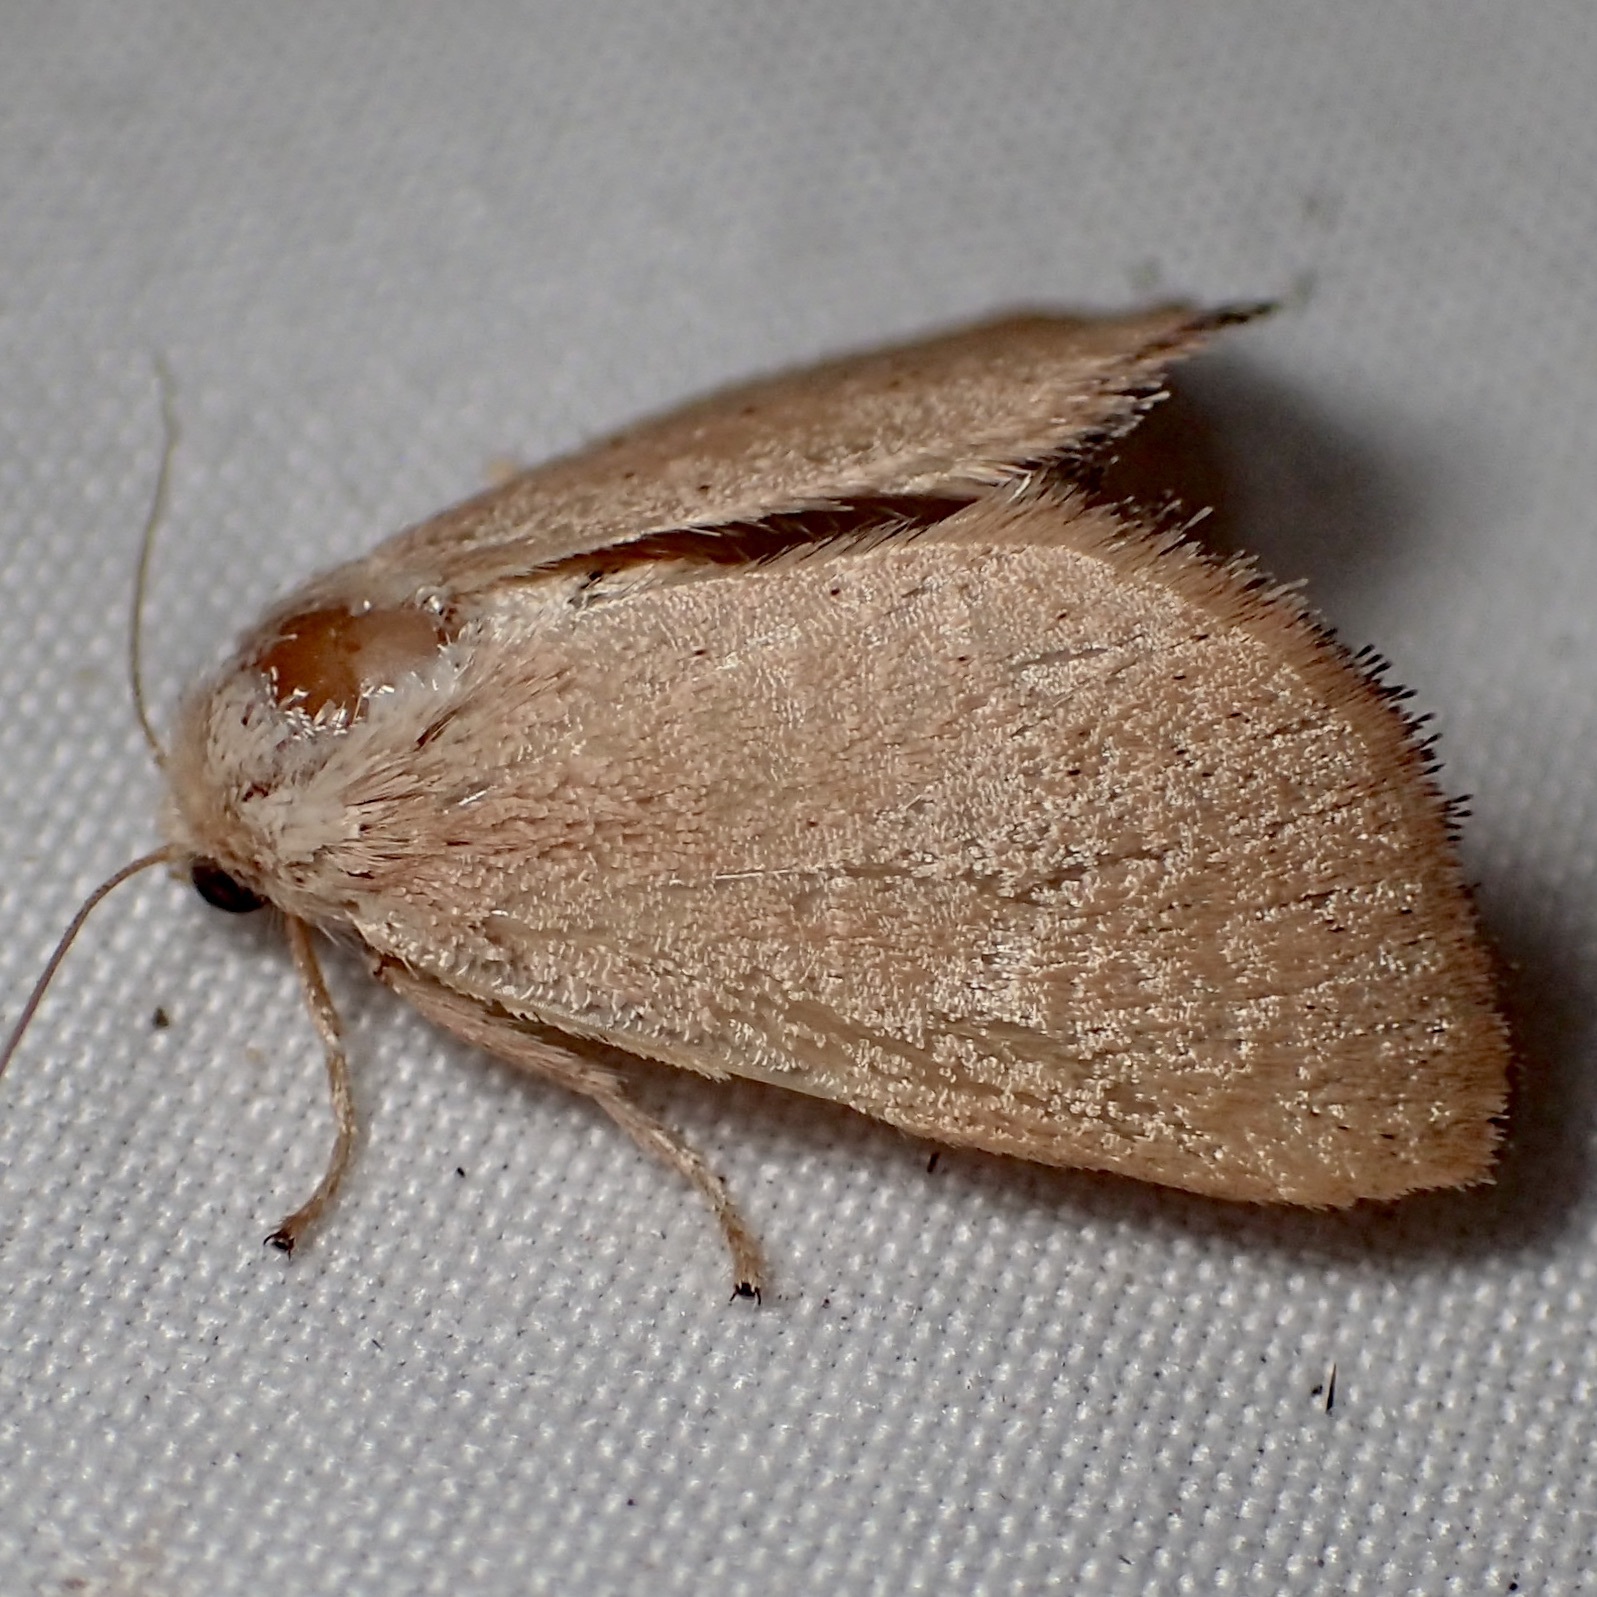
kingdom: Animalia
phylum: Arthropoda
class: Insecta
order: Lepidoptera
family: Limacodidae
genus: Isa
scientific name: Isa schaefferana
